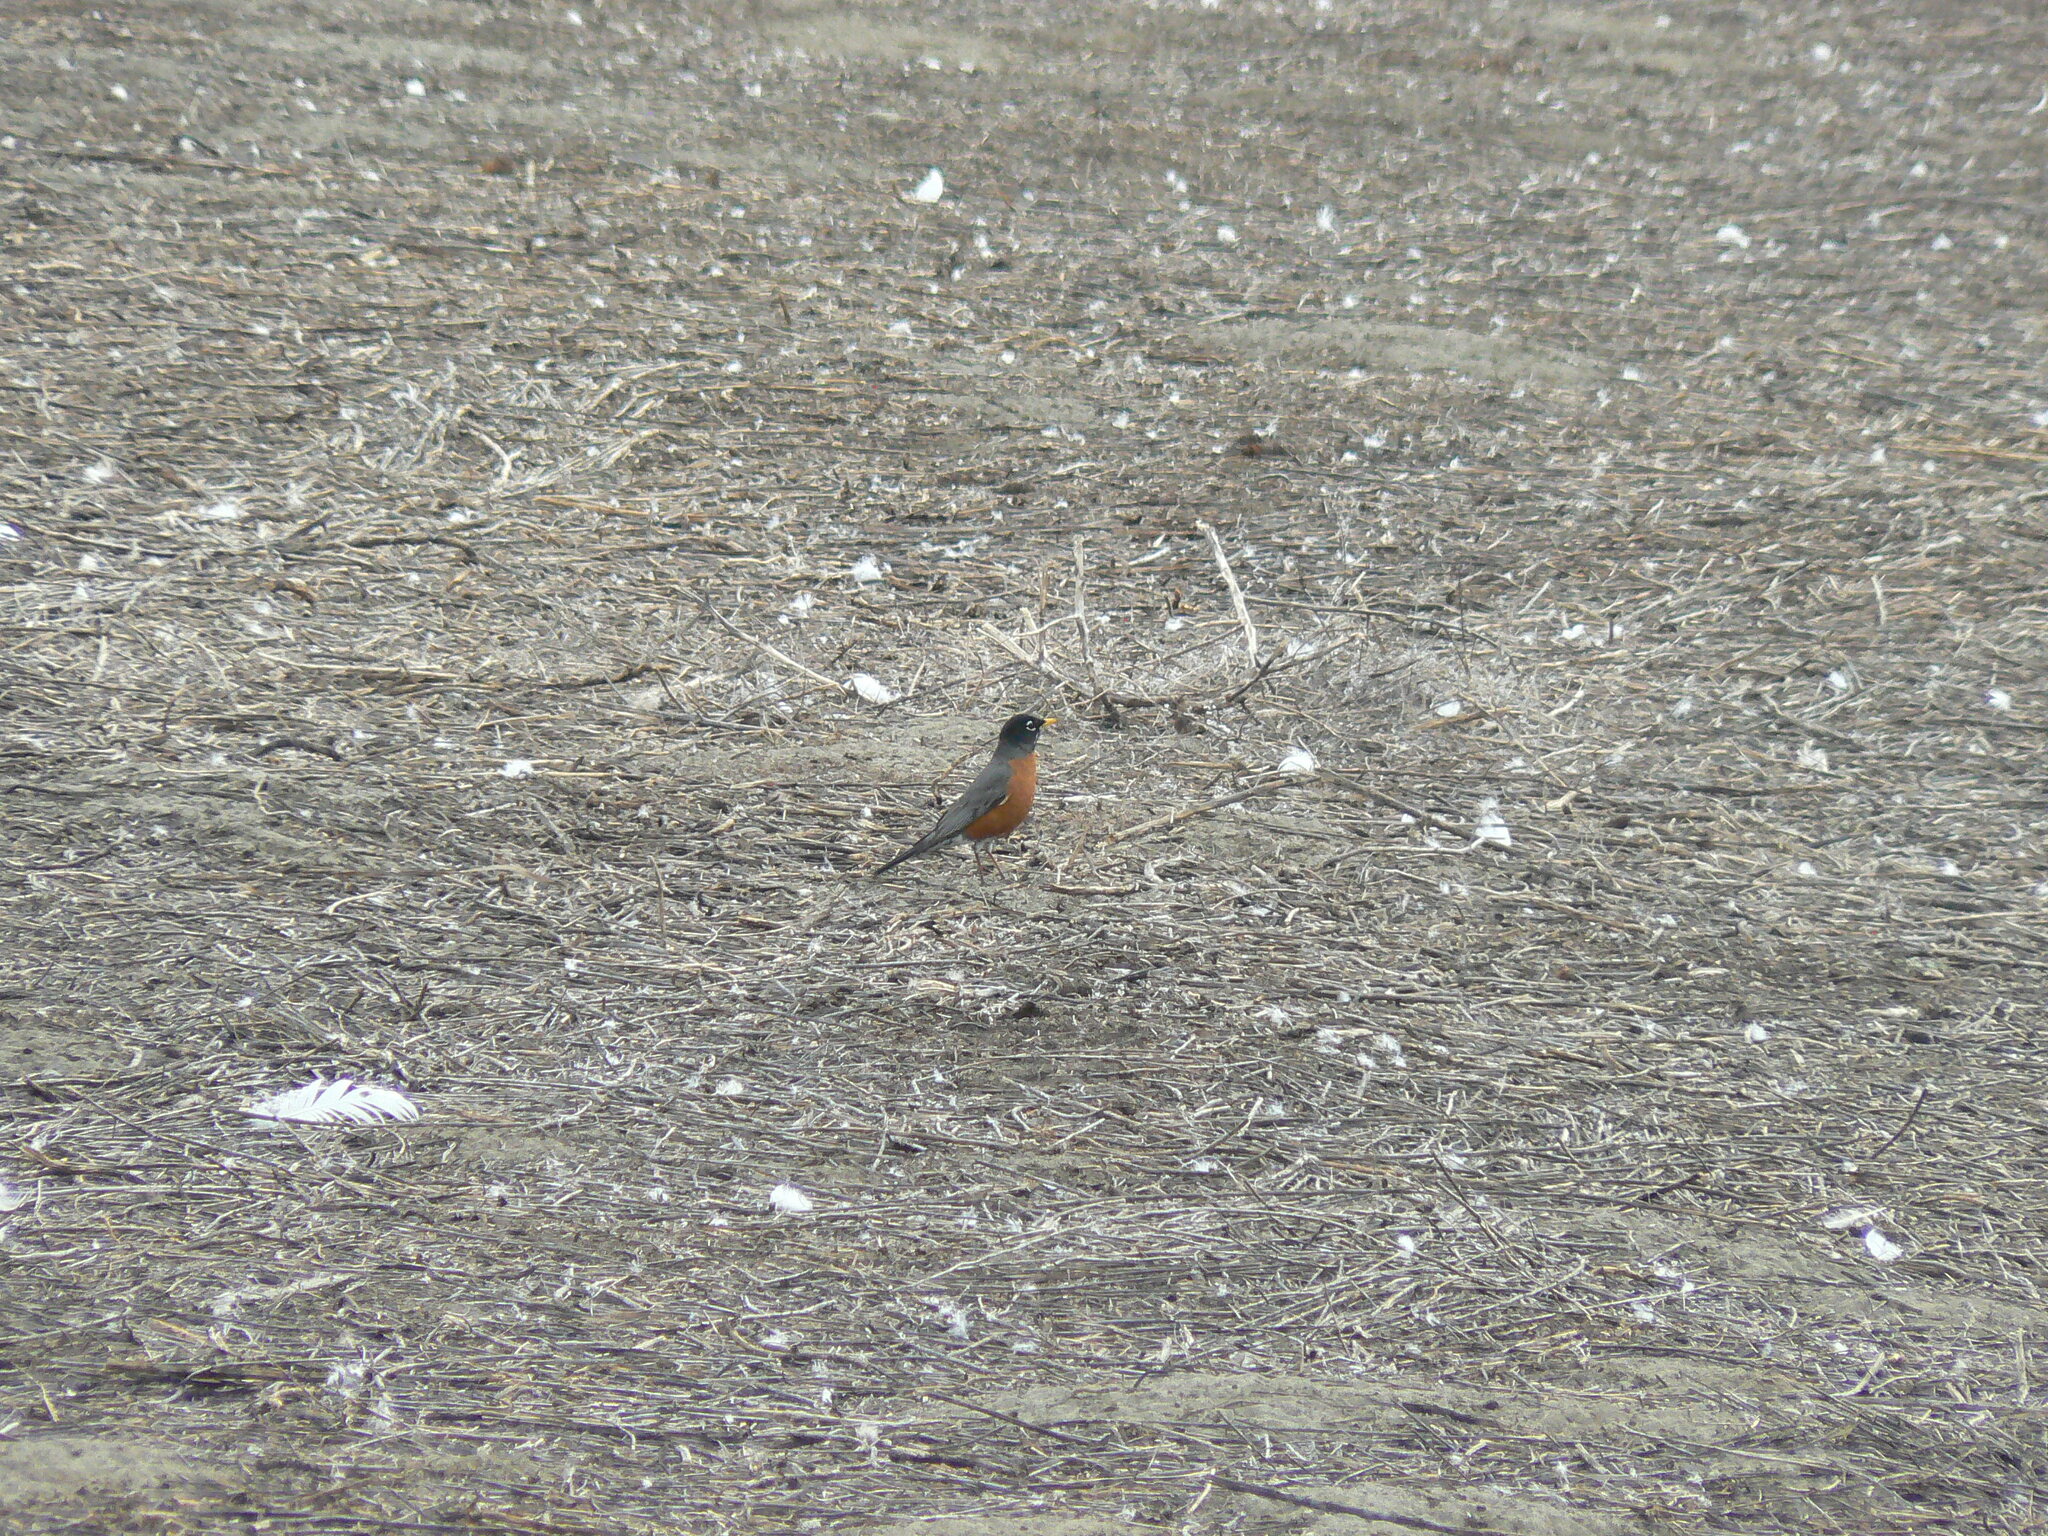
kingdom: Animalia
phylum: Chordata
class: Aves
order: Passeriformes
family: Turdidae
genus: Turdus
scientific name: Turdus migratorius
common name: American robin
